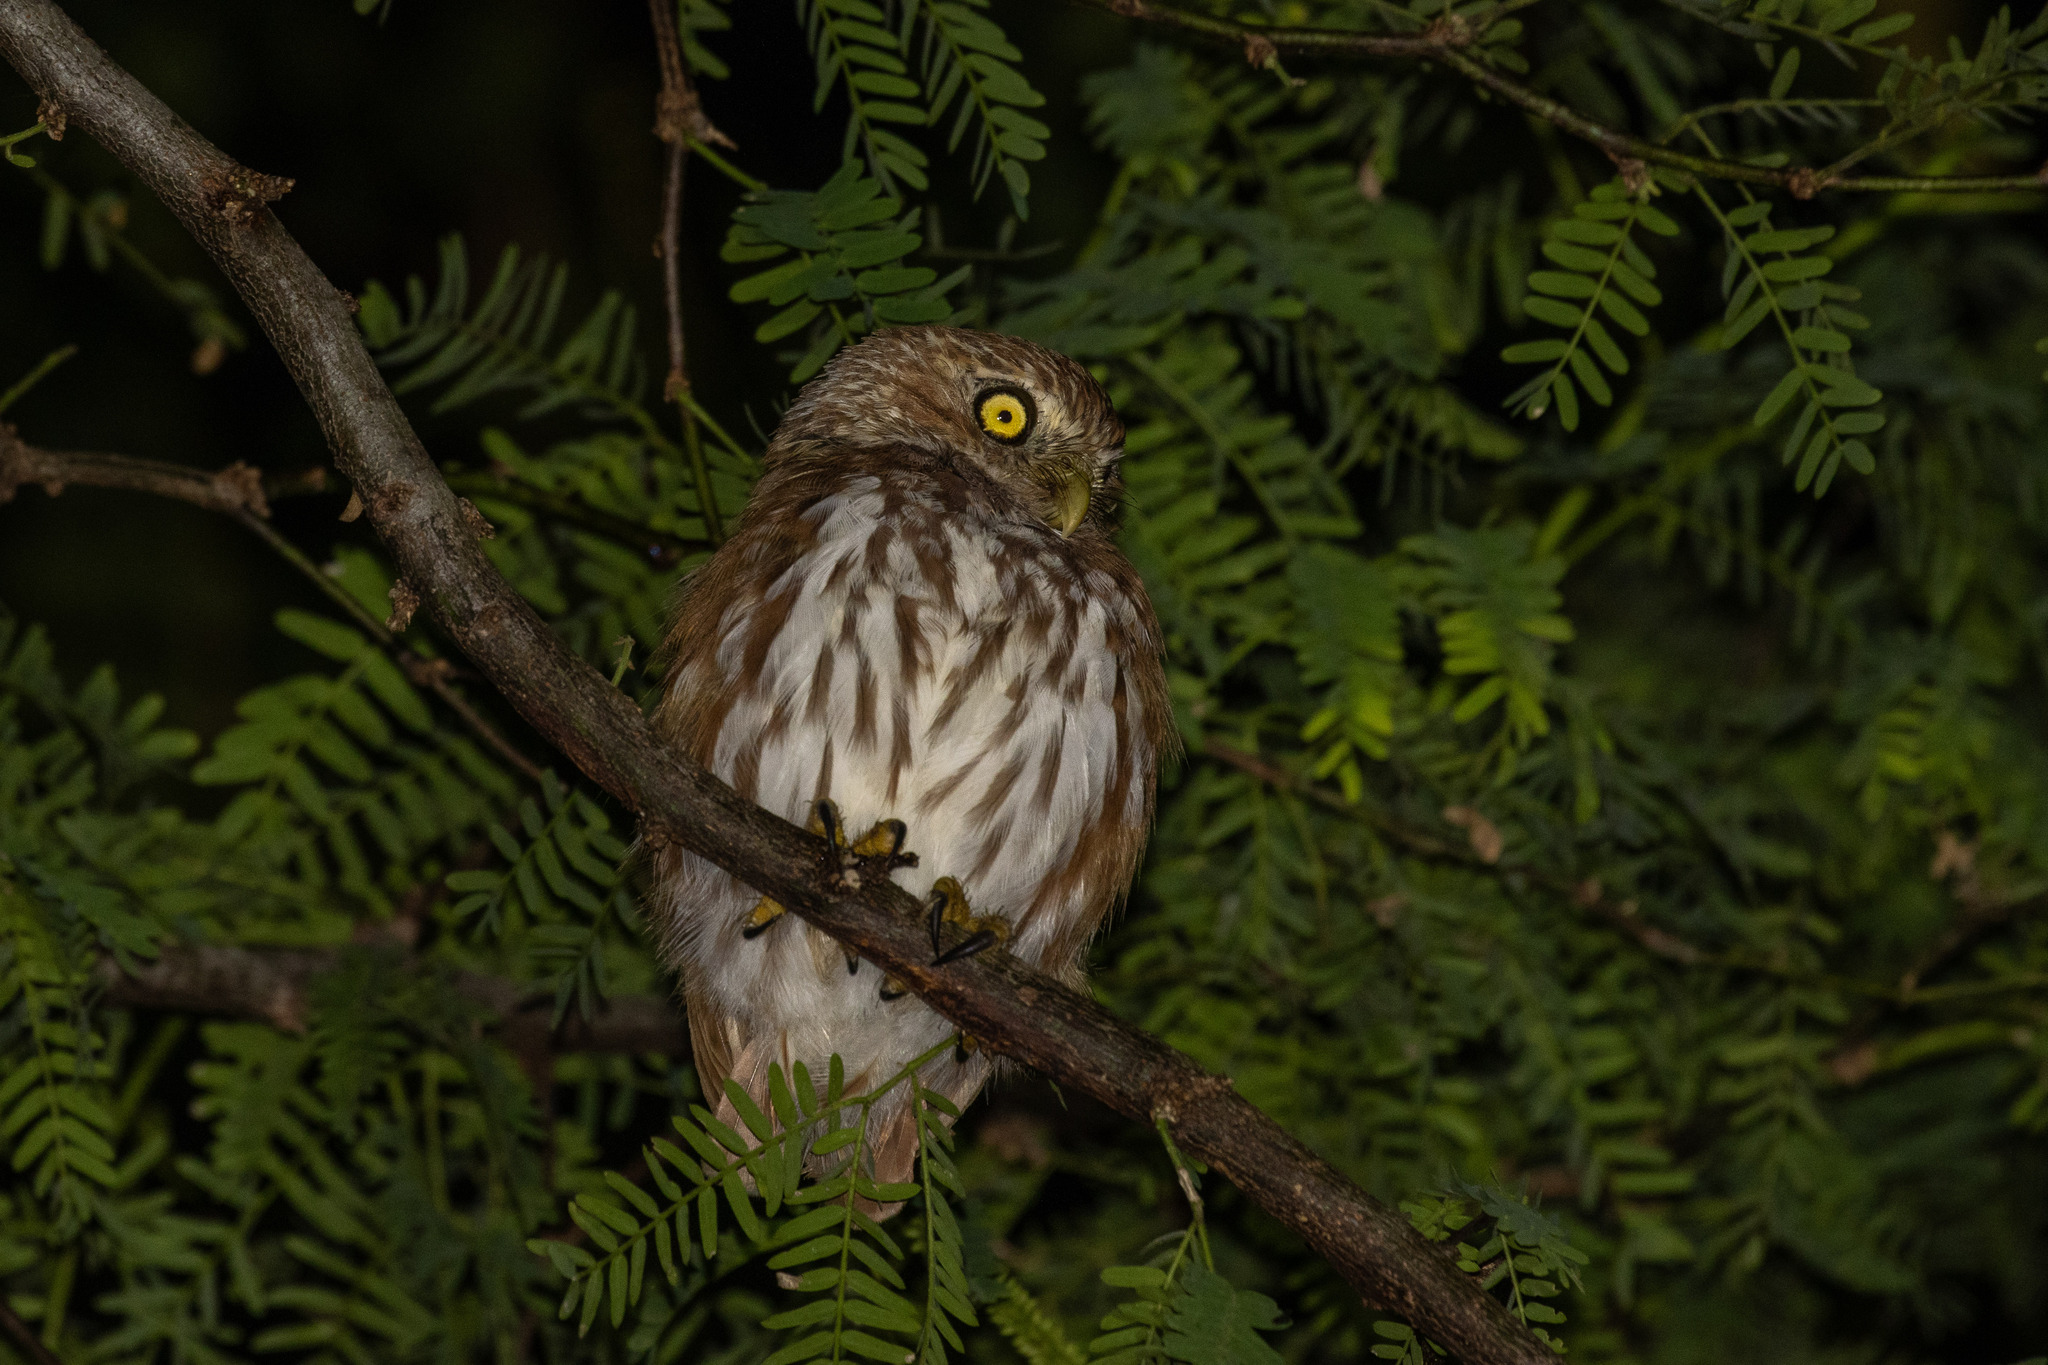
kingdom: Animalia
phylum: Chordata
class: Aves
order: Strigiformes
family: Strigidae
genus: Glaucidium
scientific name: Glaucidium brasilianum
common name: Ferruginous pygmy-owl
